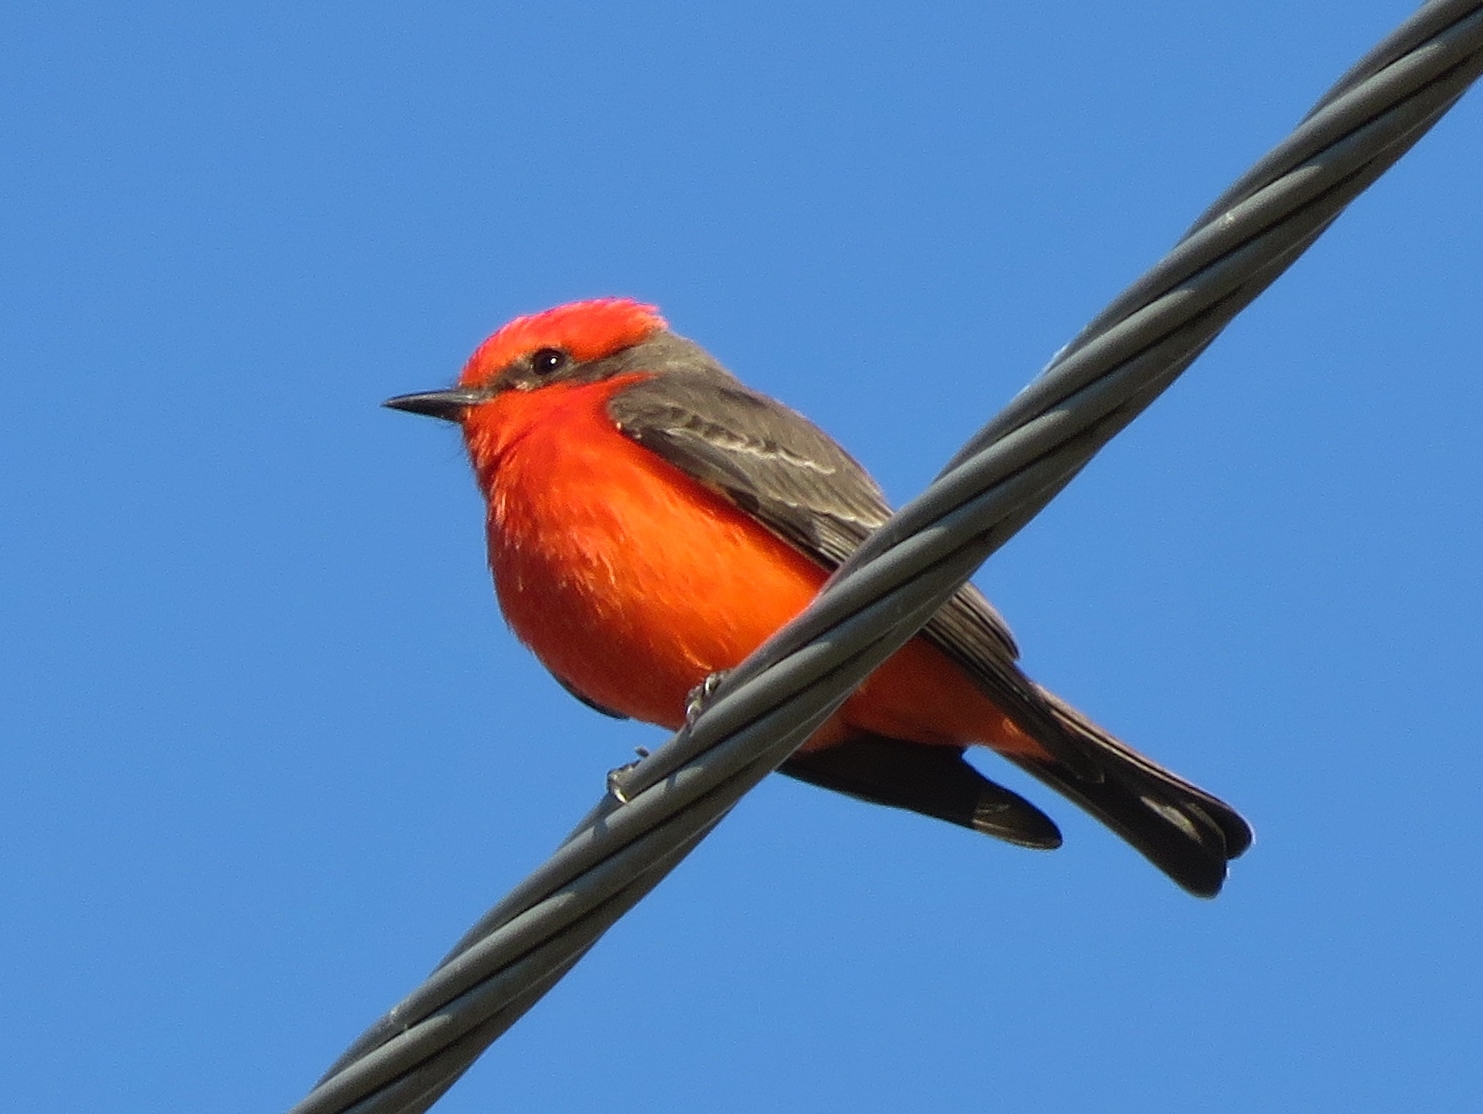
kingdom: Animalia
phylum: Chordata
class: Aves
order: Passeriformes
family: Tyrannidae
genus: Pyrocephalus
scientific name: Pyrocephalus rubinus
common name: Vermilion flycatcher
